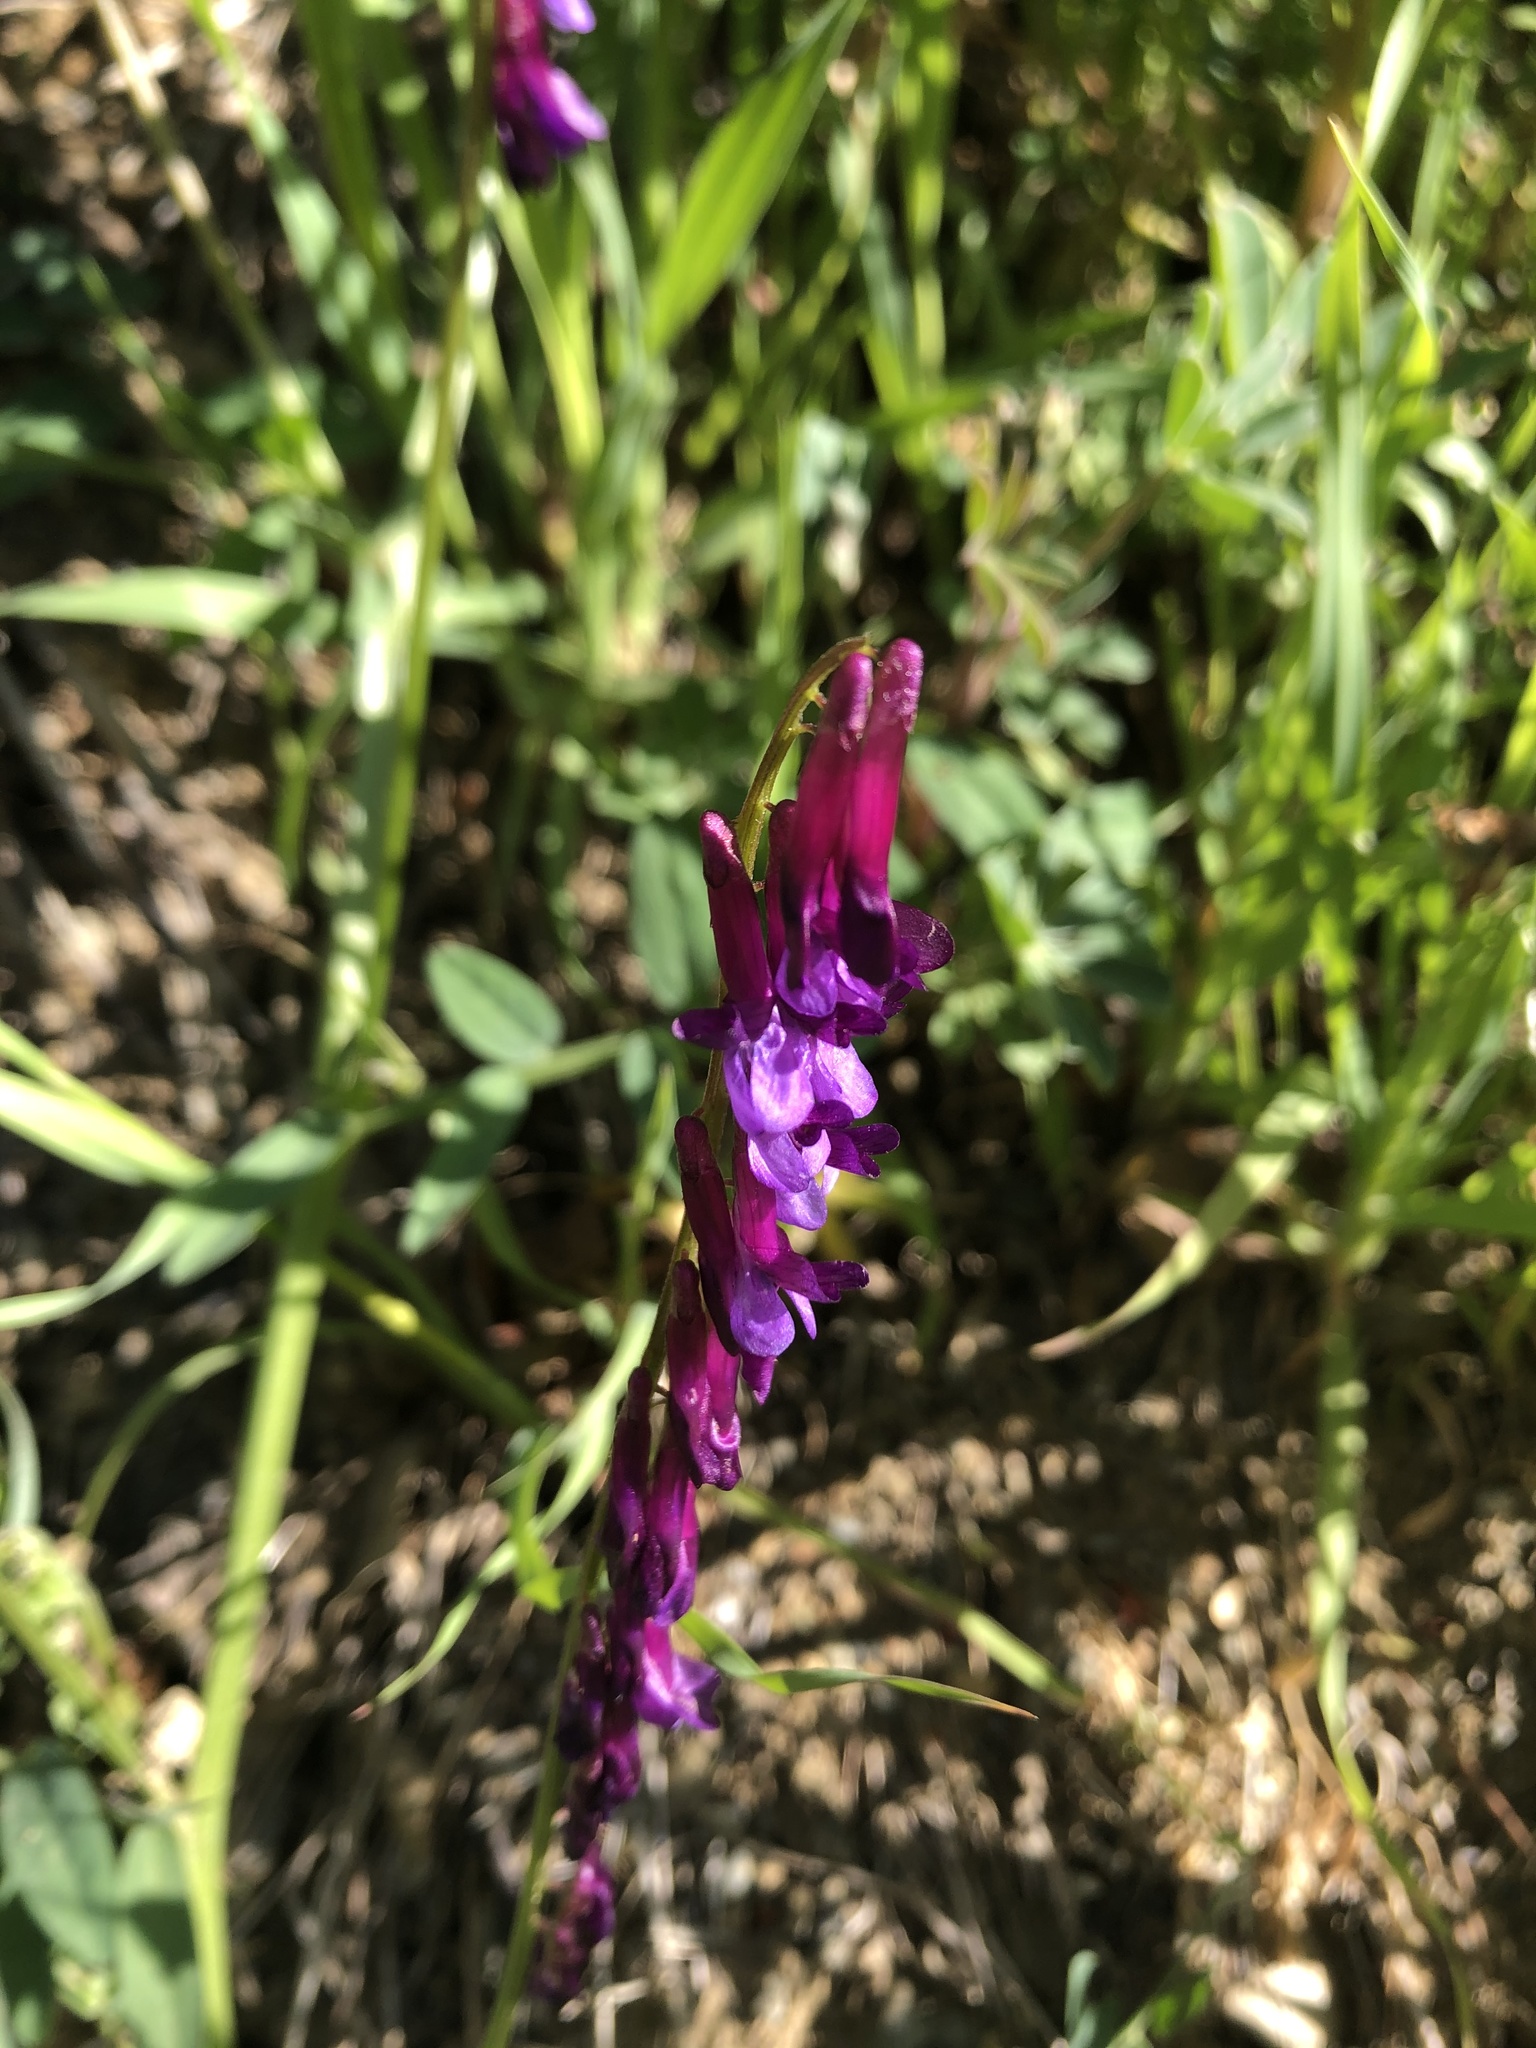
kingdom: Plantae
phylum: Tracheophyta
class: Magnoliopsida
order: Fabales
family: Fabaceae
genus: Vicia
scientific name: Vicia villosa
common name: Fodder vetch
